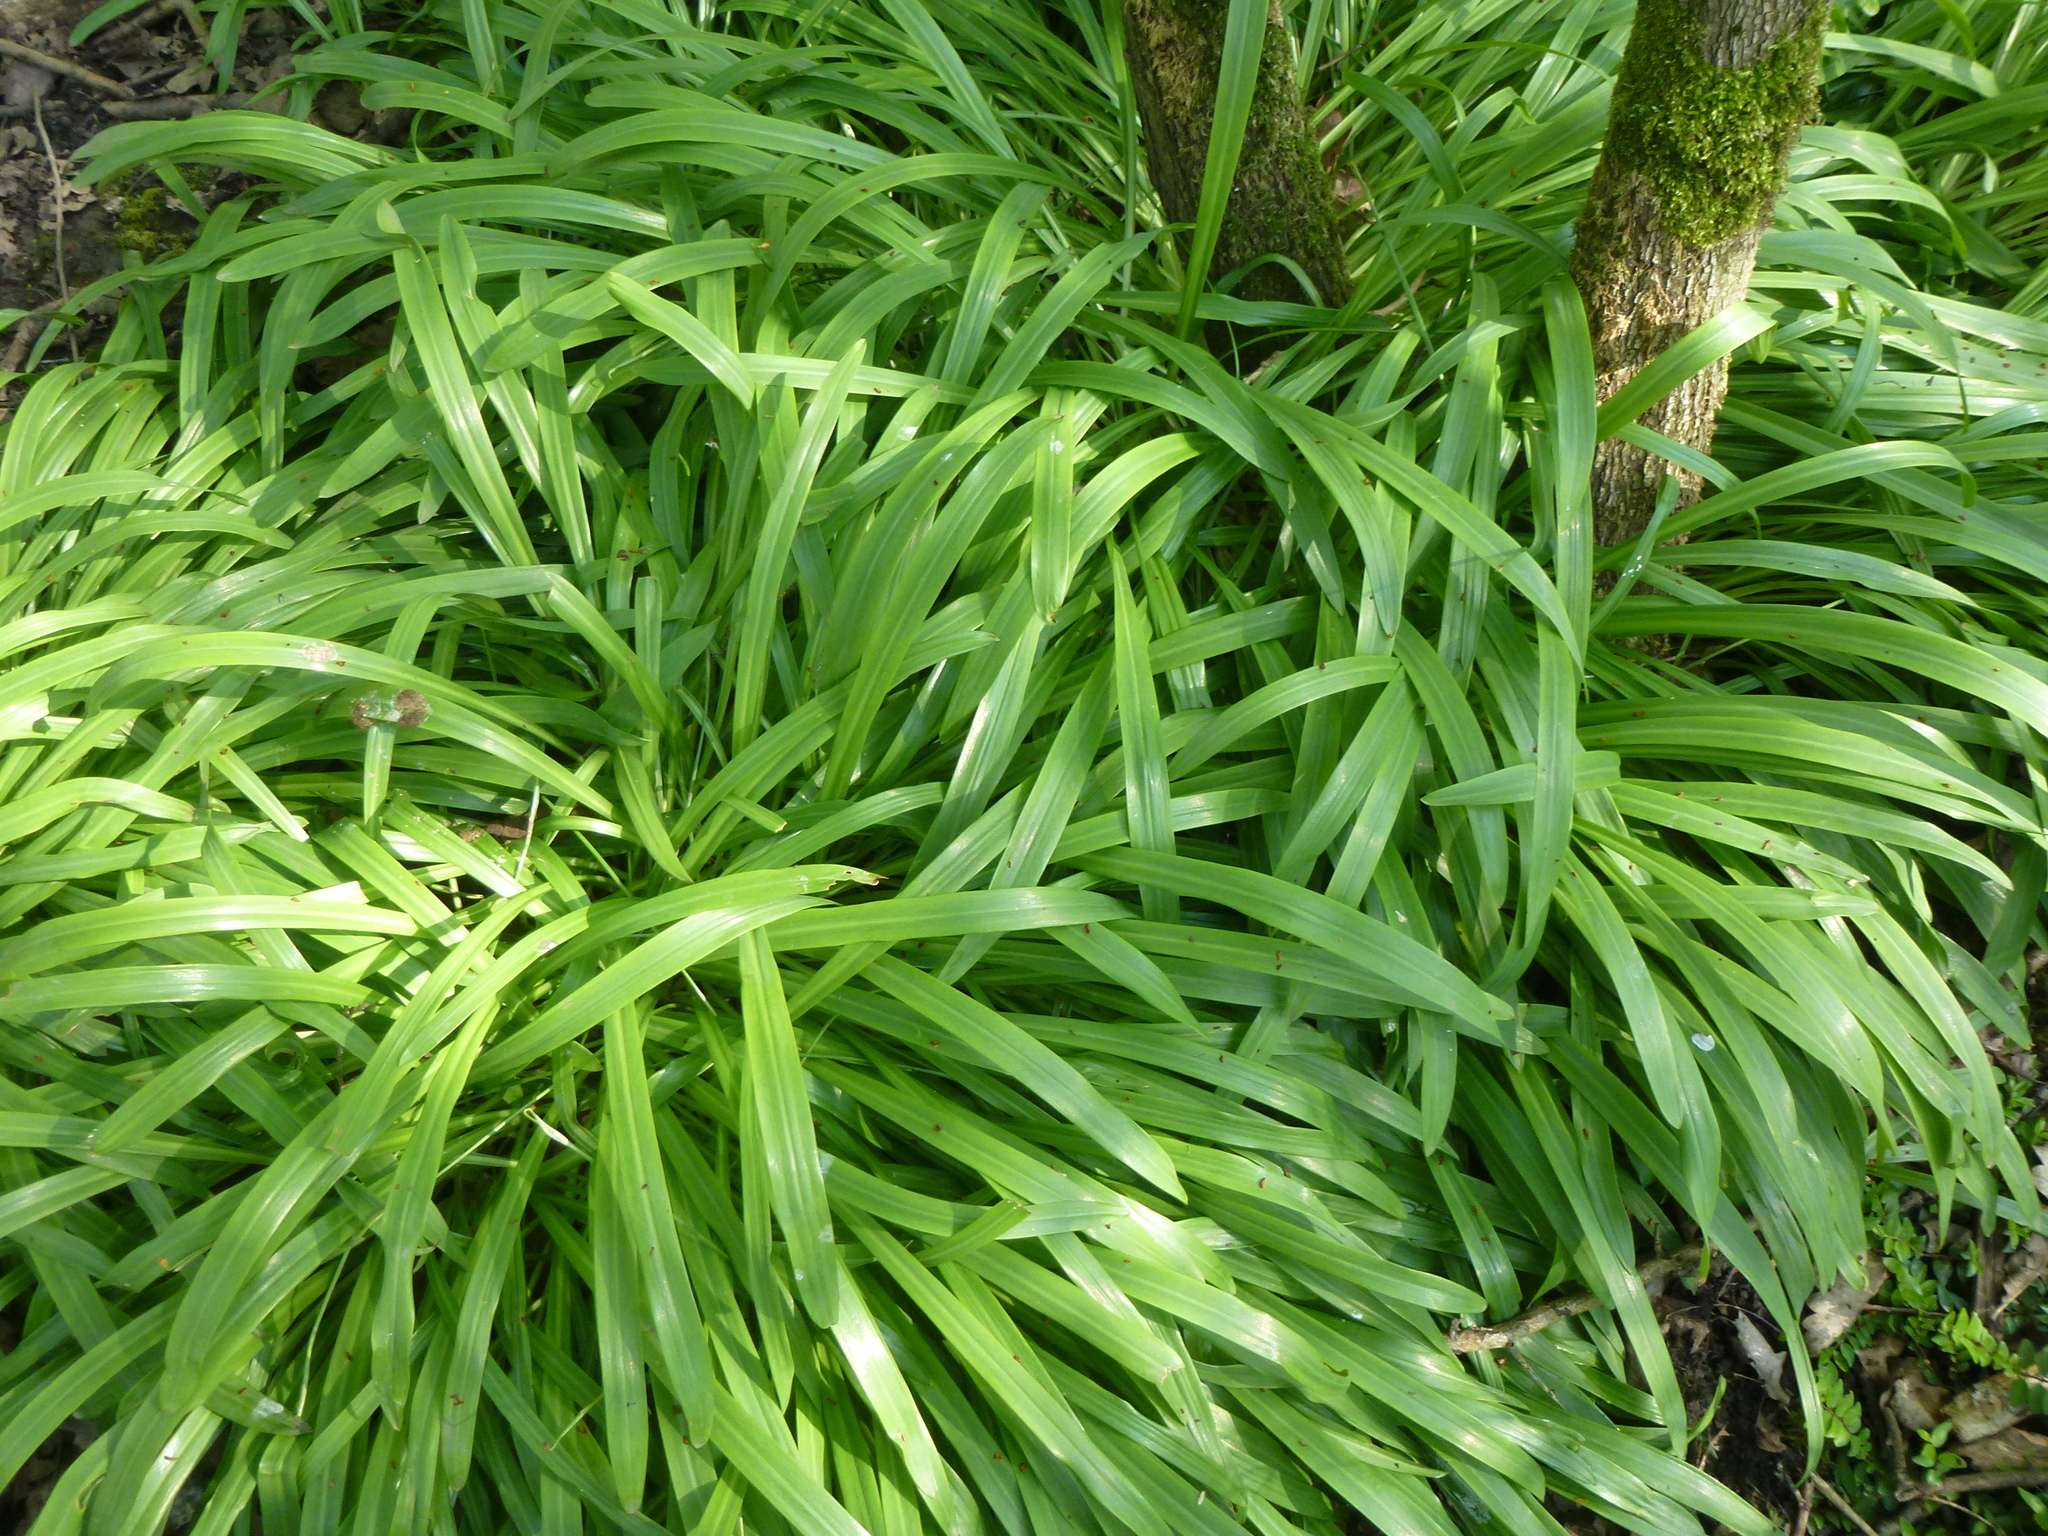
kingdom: Plantae
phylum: Tracheophyta
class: Liliopsida
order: Asparagales
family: Amaryllidaceae
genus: Allium
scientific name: Allium triquetrum
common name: Three-cornered garlic
